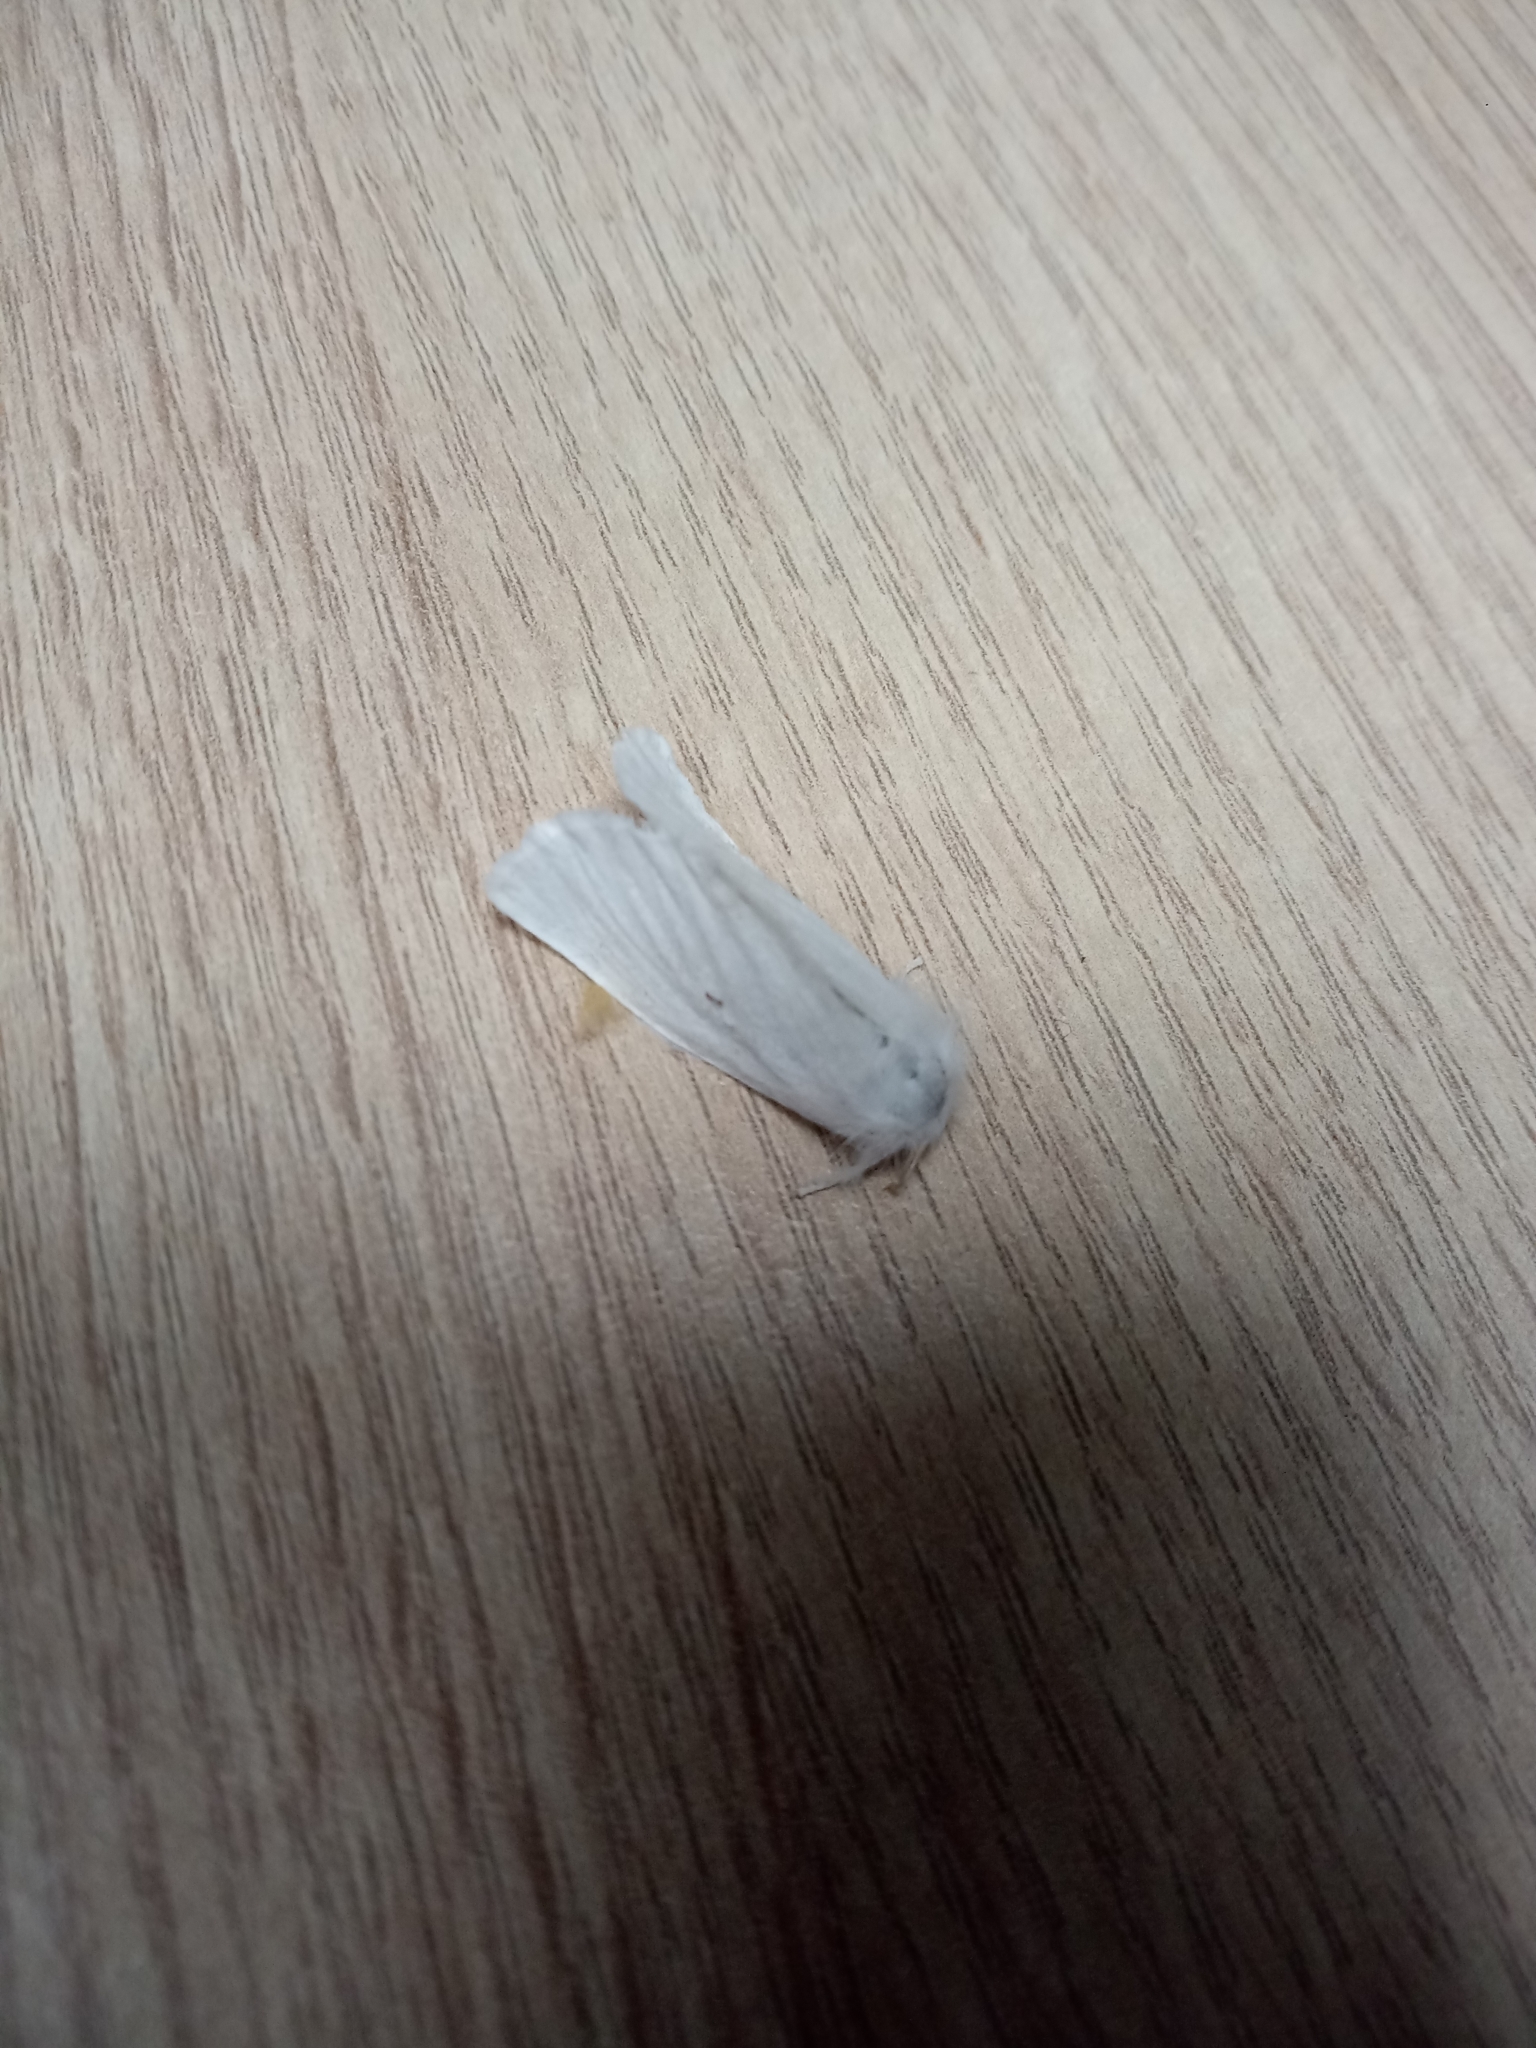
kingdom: Animalia
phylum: Arthropoda
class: Insecta
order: Lepidoptera
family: Erebidae
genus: Sphrageidus
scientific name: Sphrageidus similis
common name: Yellow-tail
